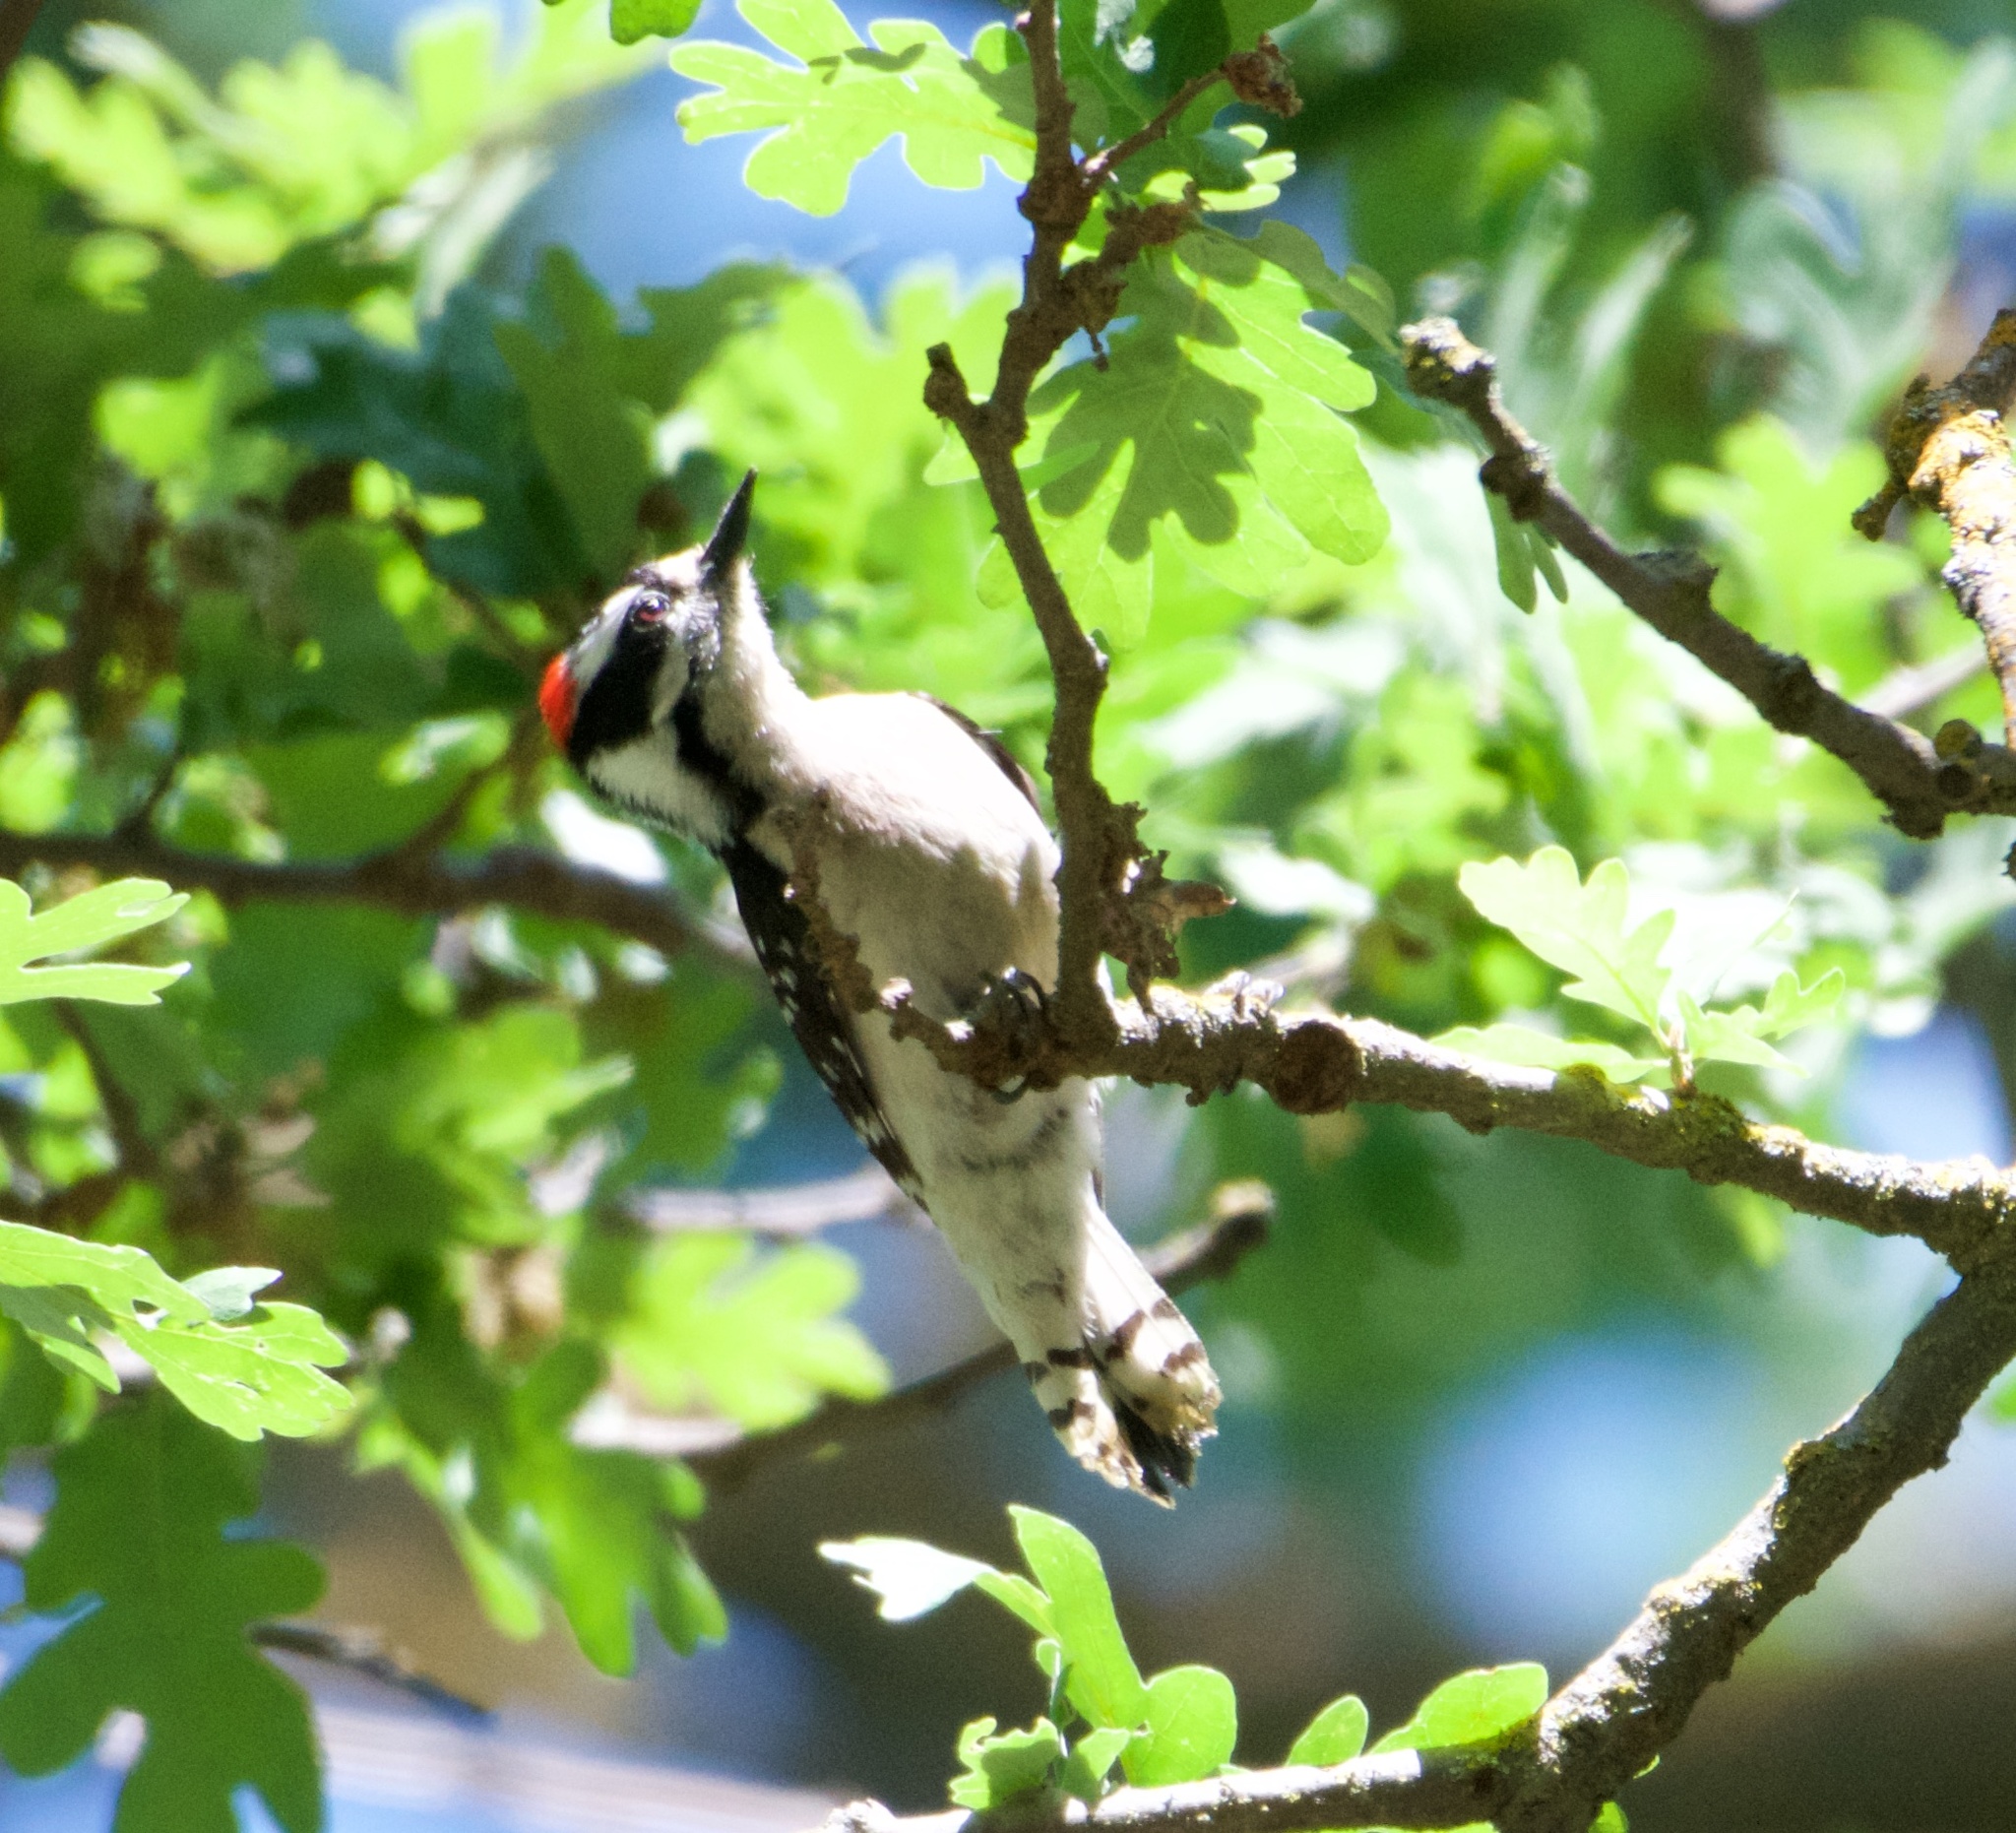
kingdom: Animalia
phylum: Chordata
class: Aves
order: Piciformes
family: Picidae
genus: Dryobates
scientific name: Dryobates pubescens
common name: Downy woodpecker
